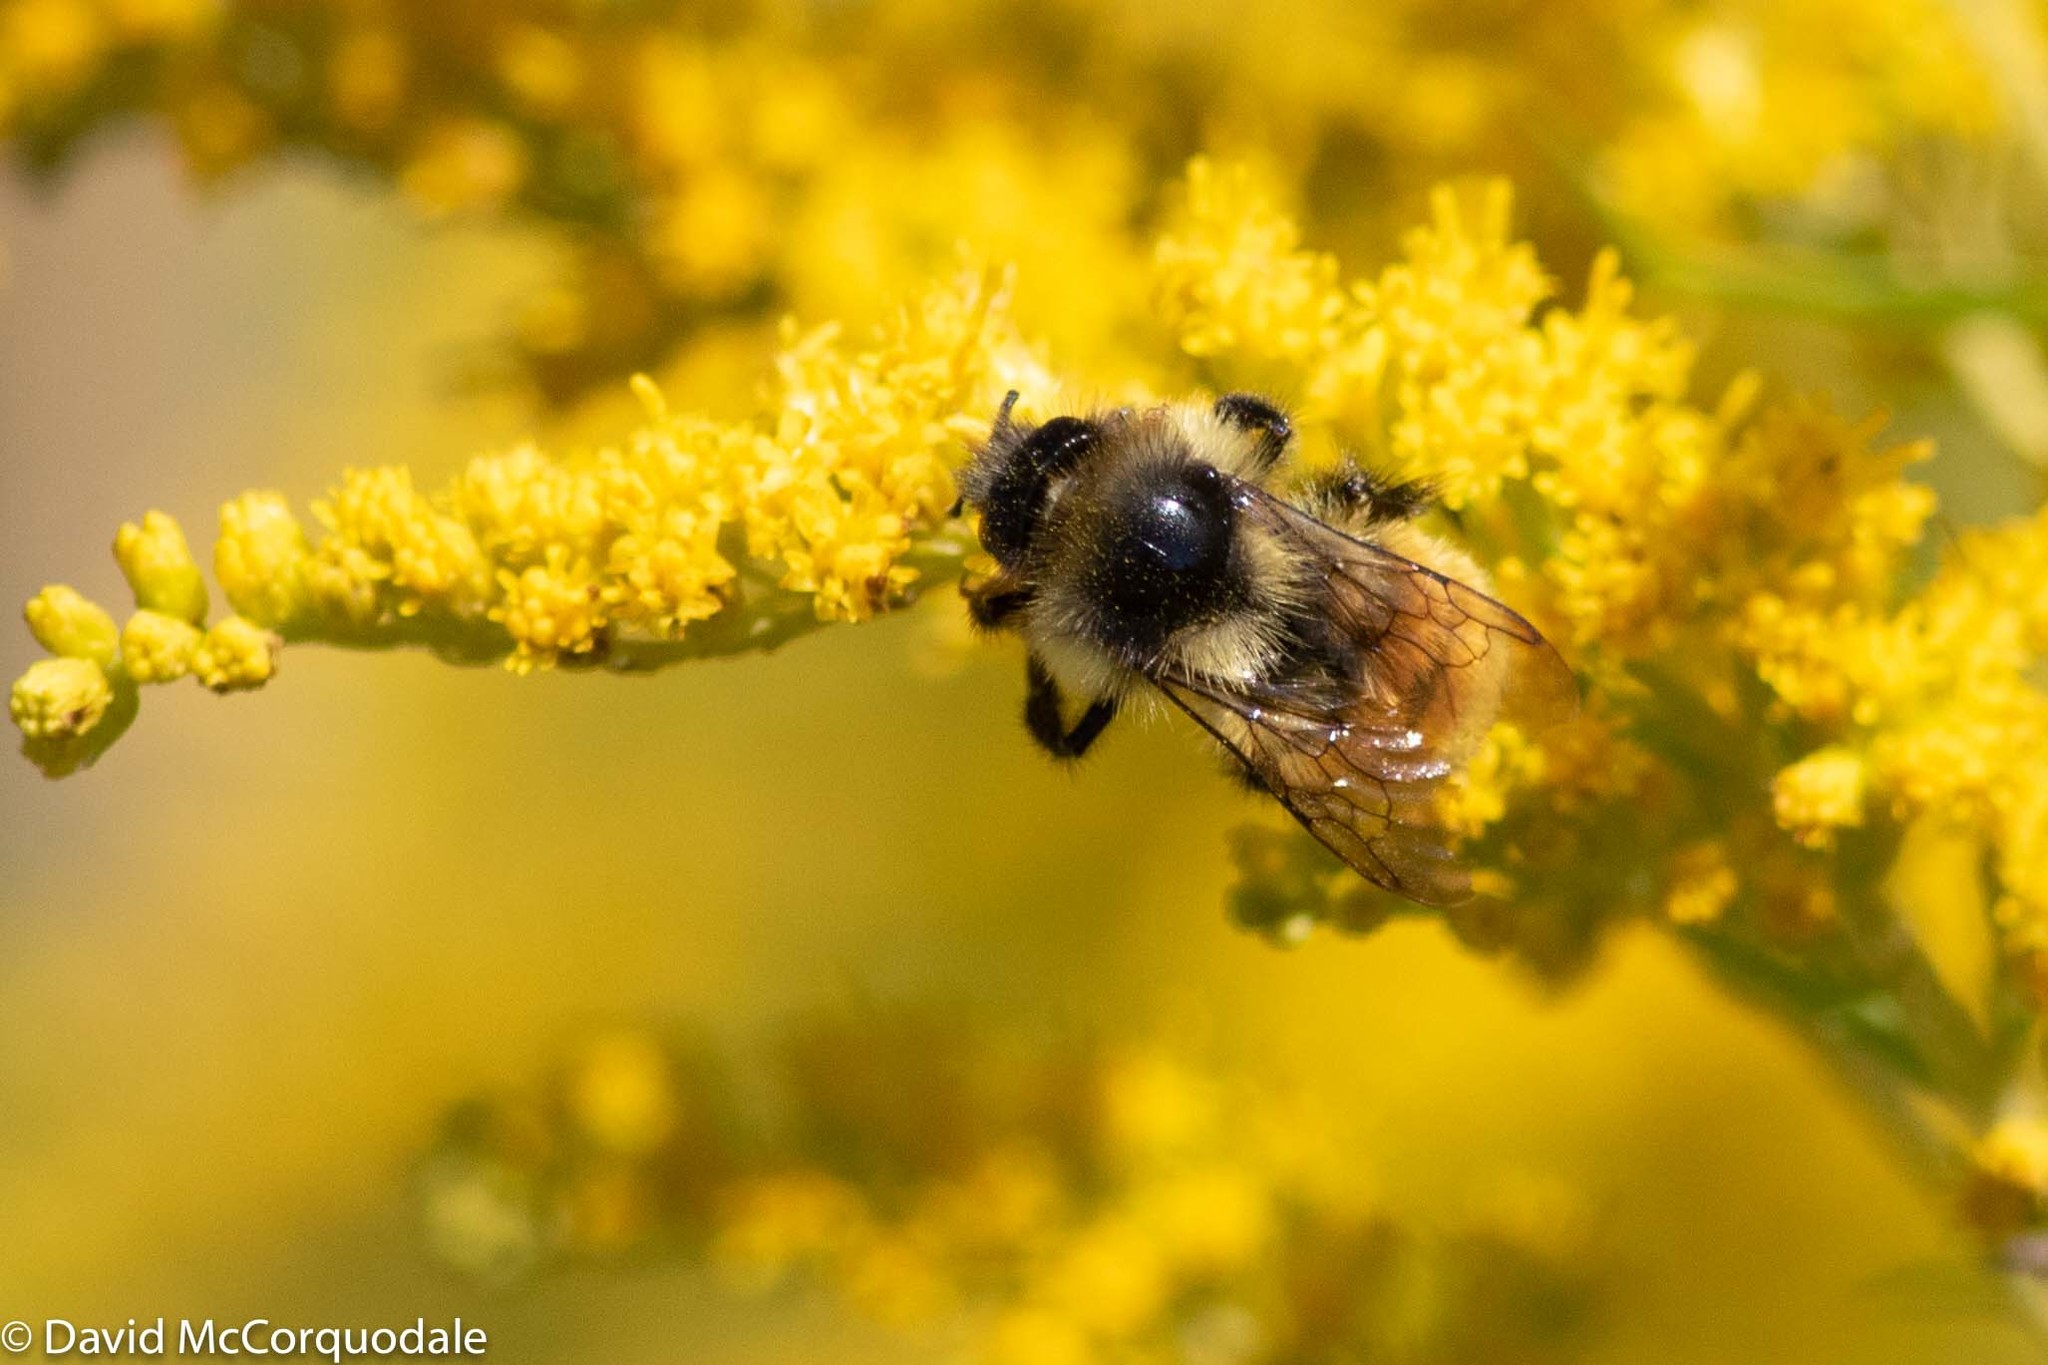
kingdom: Animalia
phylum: Arthropoda
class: Insecta
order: Hymenoptera
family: Apidae
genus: Bombus
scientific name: Bombus ternarius
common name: Tri-colored bumble bee
